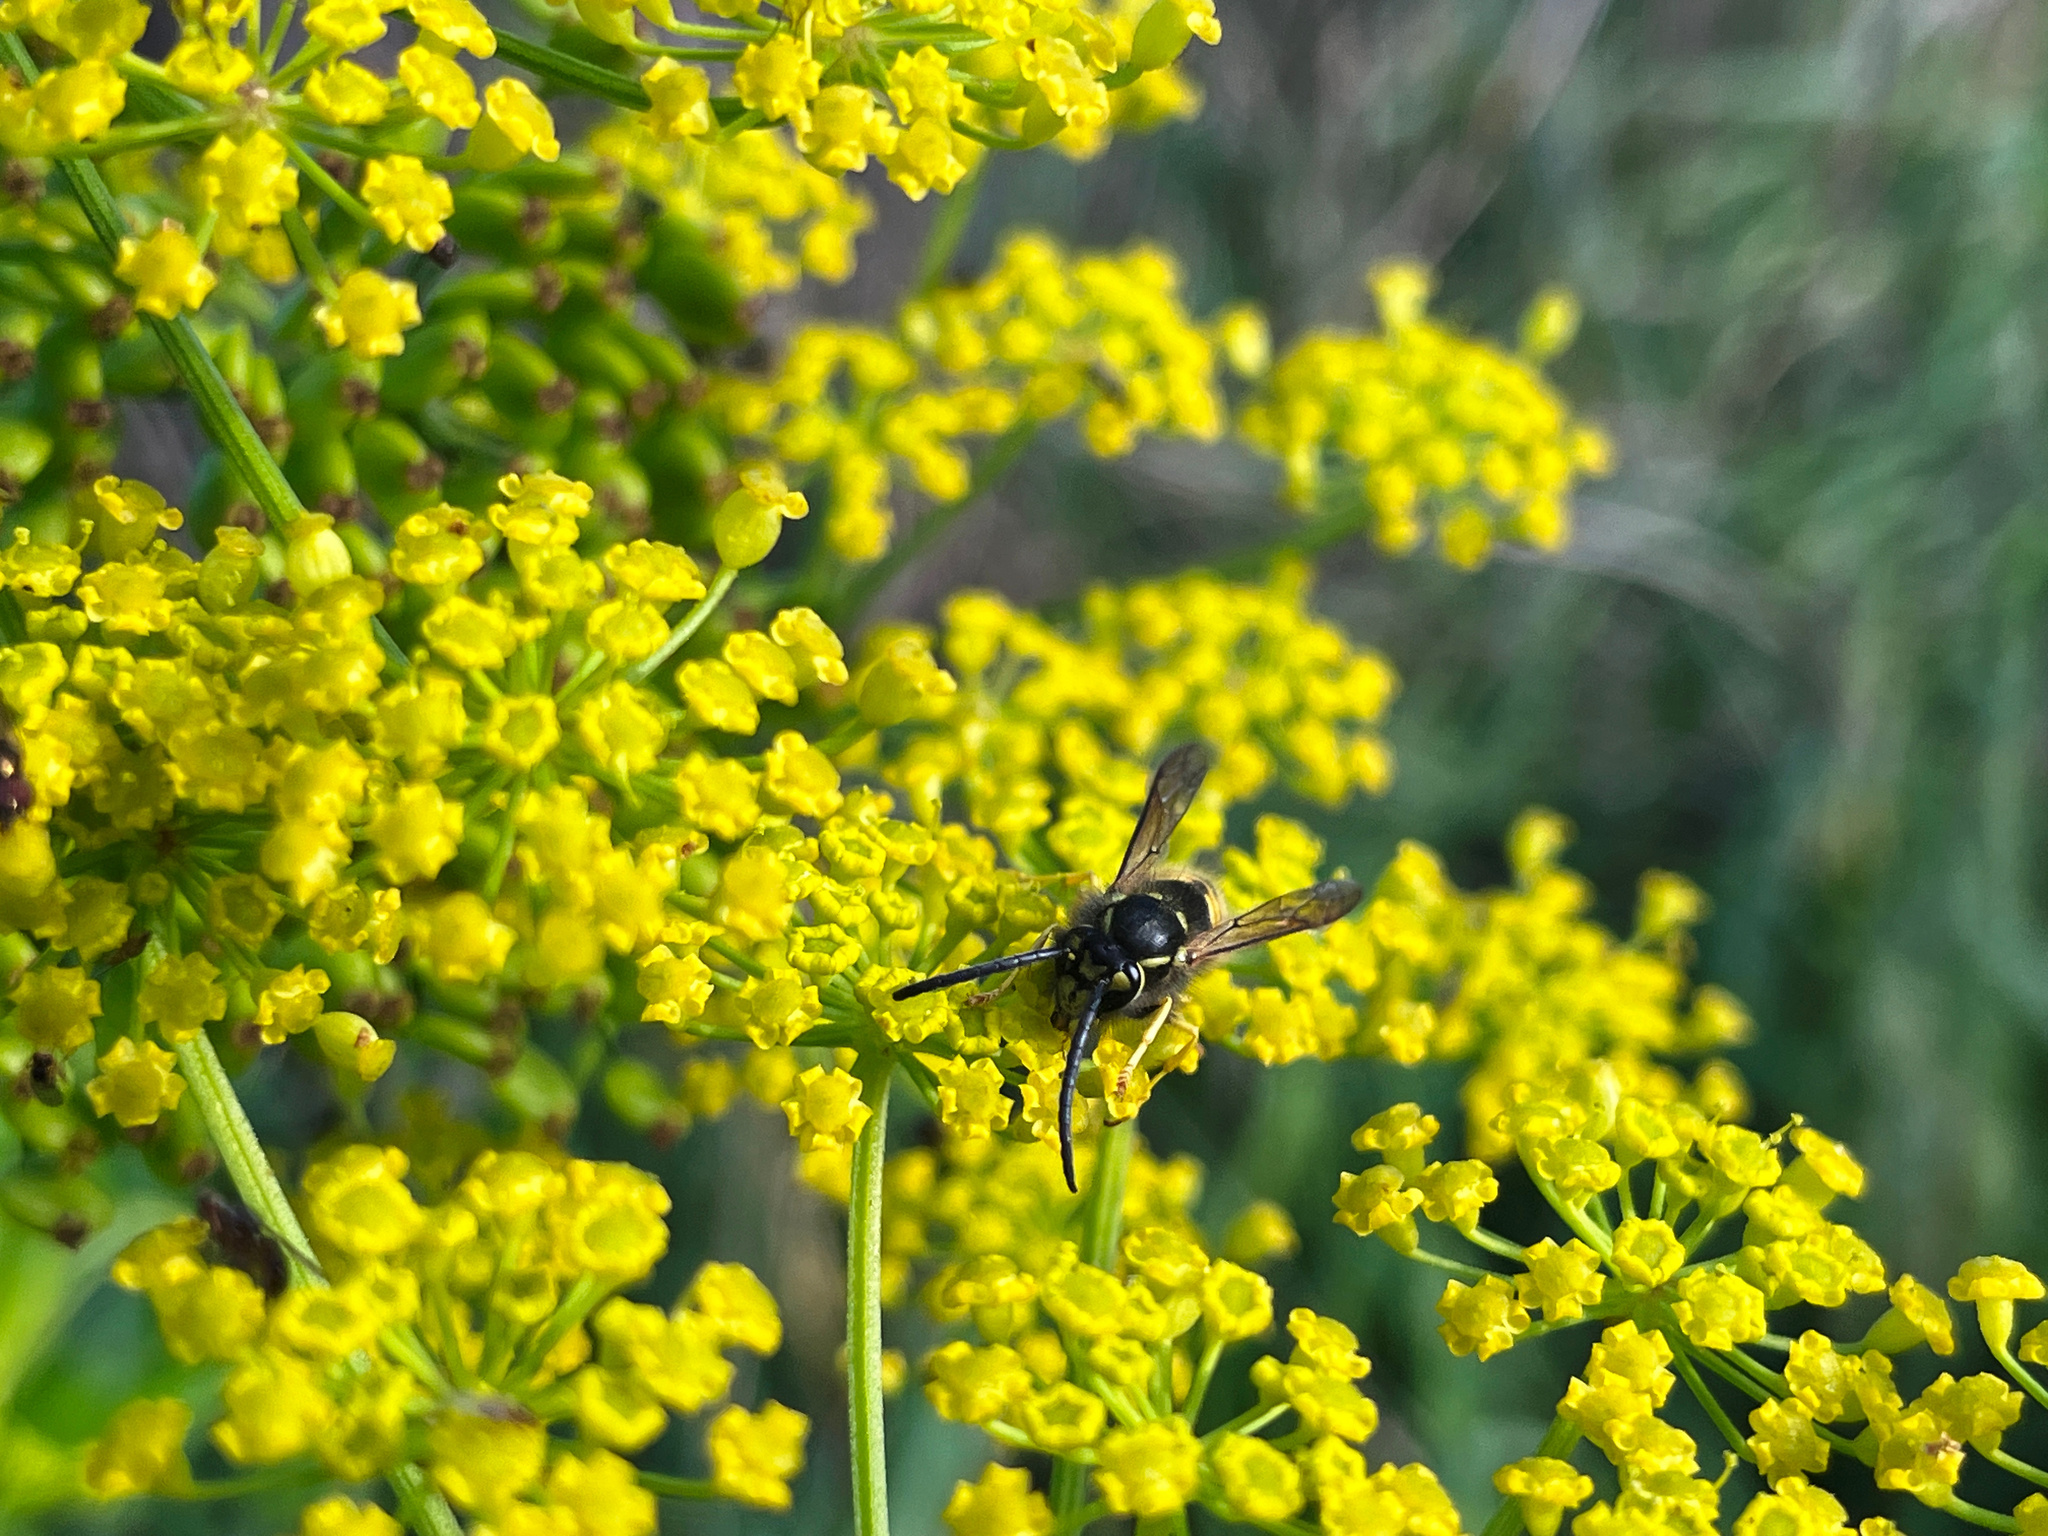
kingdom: Animalia
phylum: Arthropoda
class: Insecta
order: Hymenoptera
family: Vespidae
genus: Vespula
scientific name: Vespula vulgaris
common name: Common wasp
